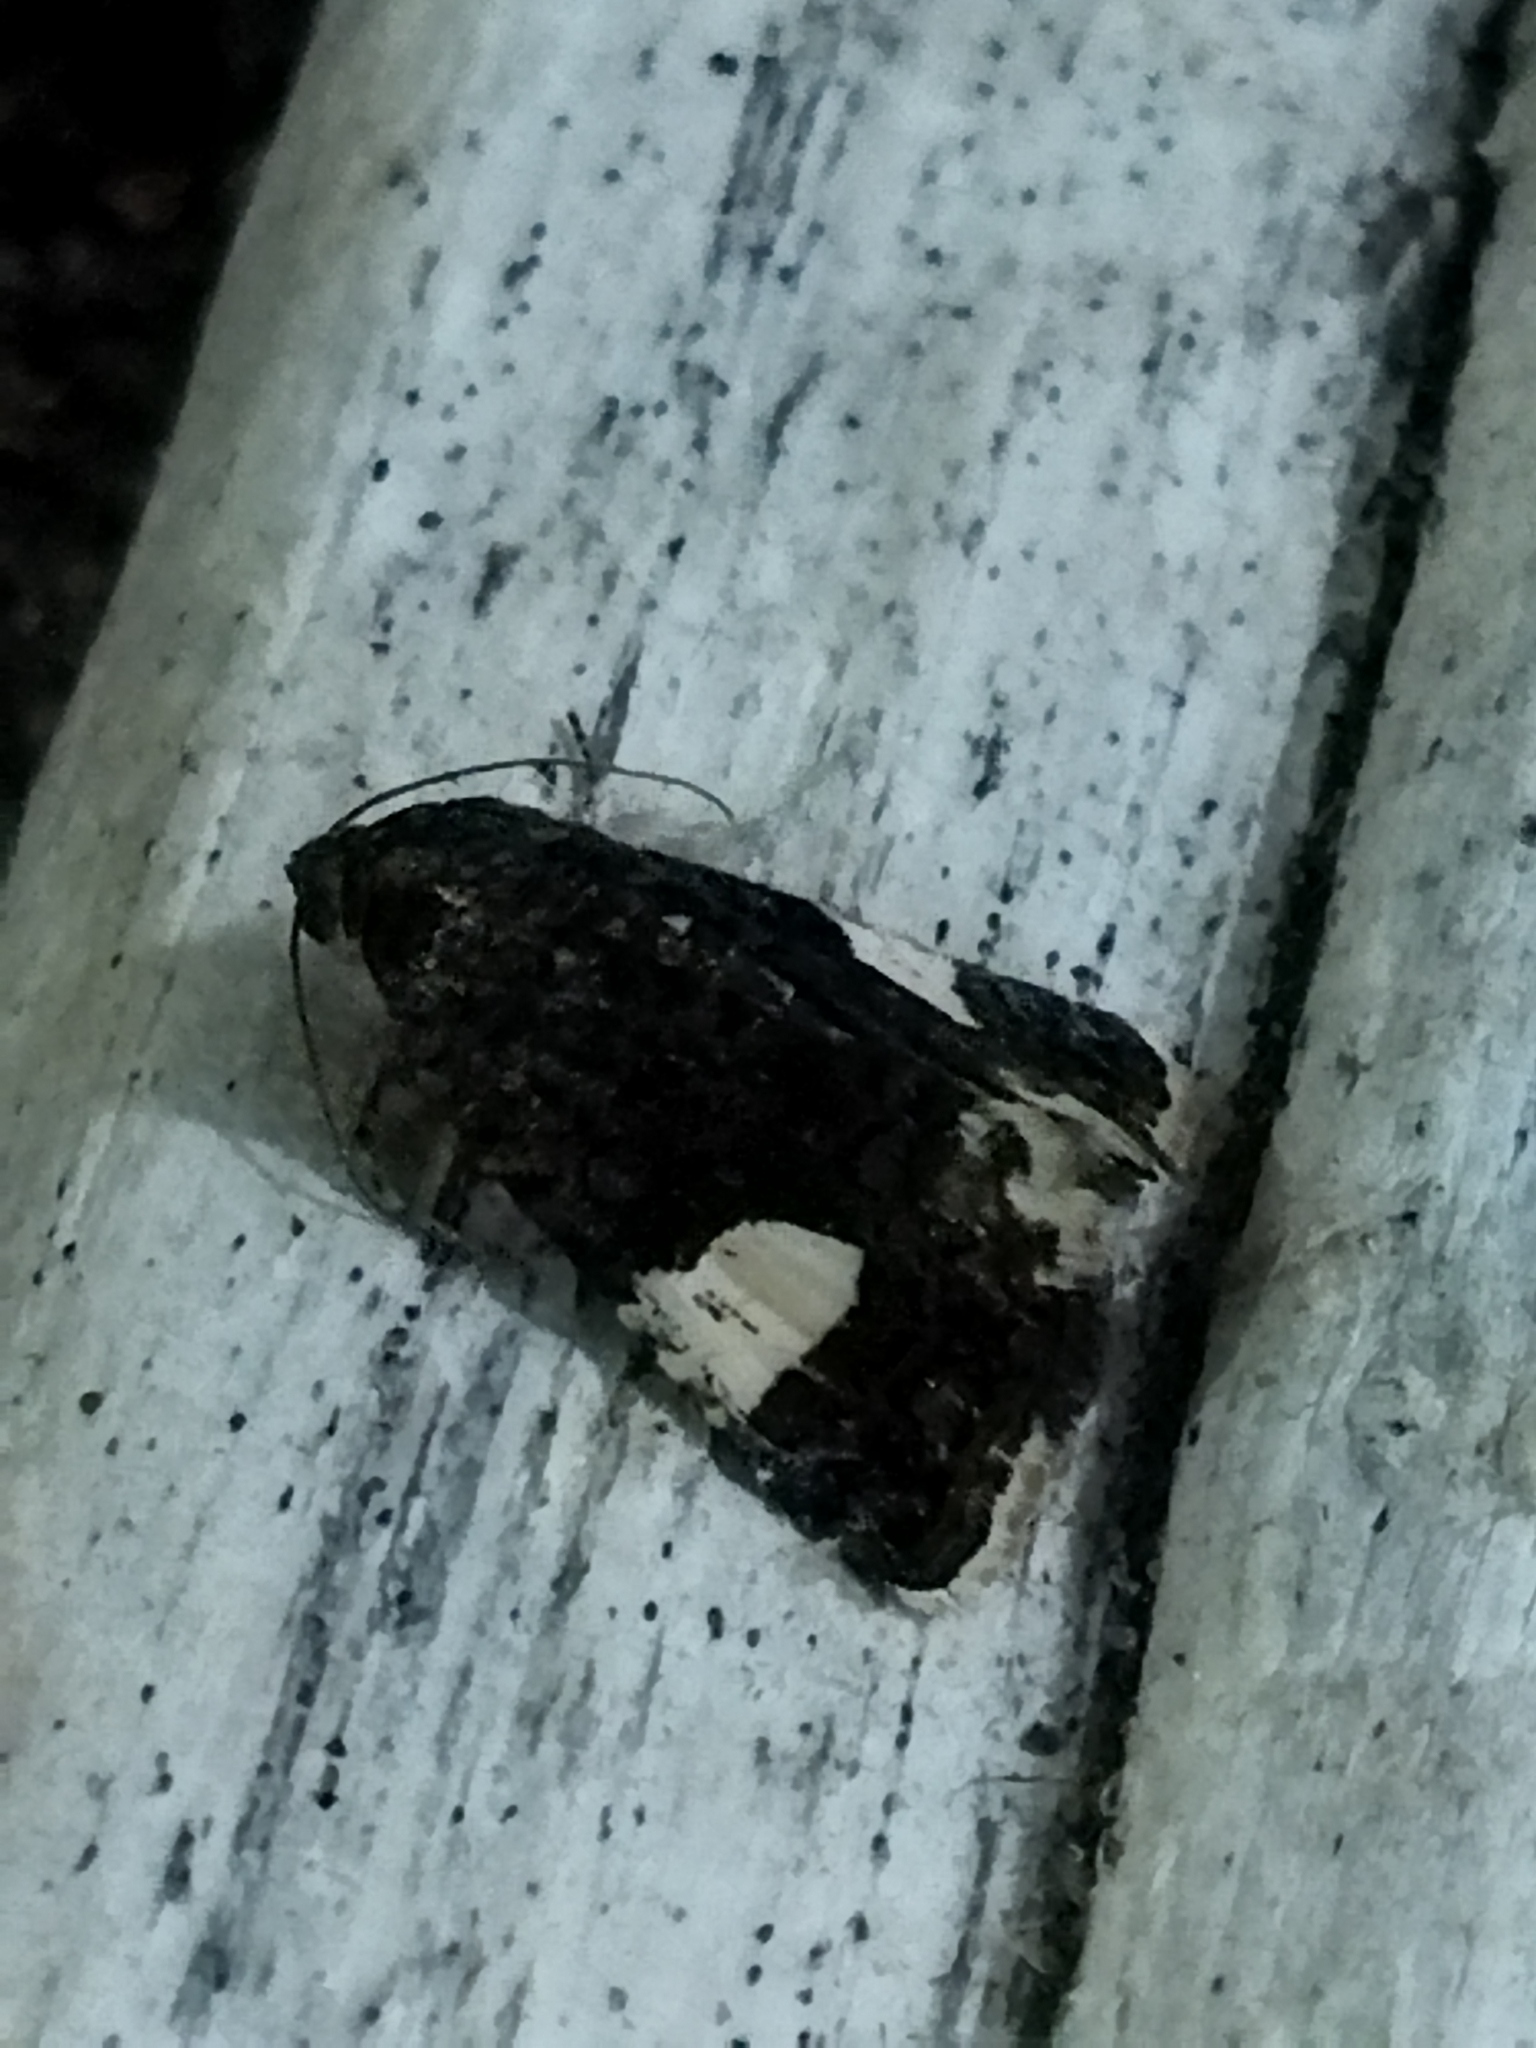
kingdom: Animalia
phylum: Arthropoda
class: Insecta
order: Lepidoptera
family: Erebidae
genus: Tyta
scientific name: Tyta luctuosa
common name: Four-spotted
